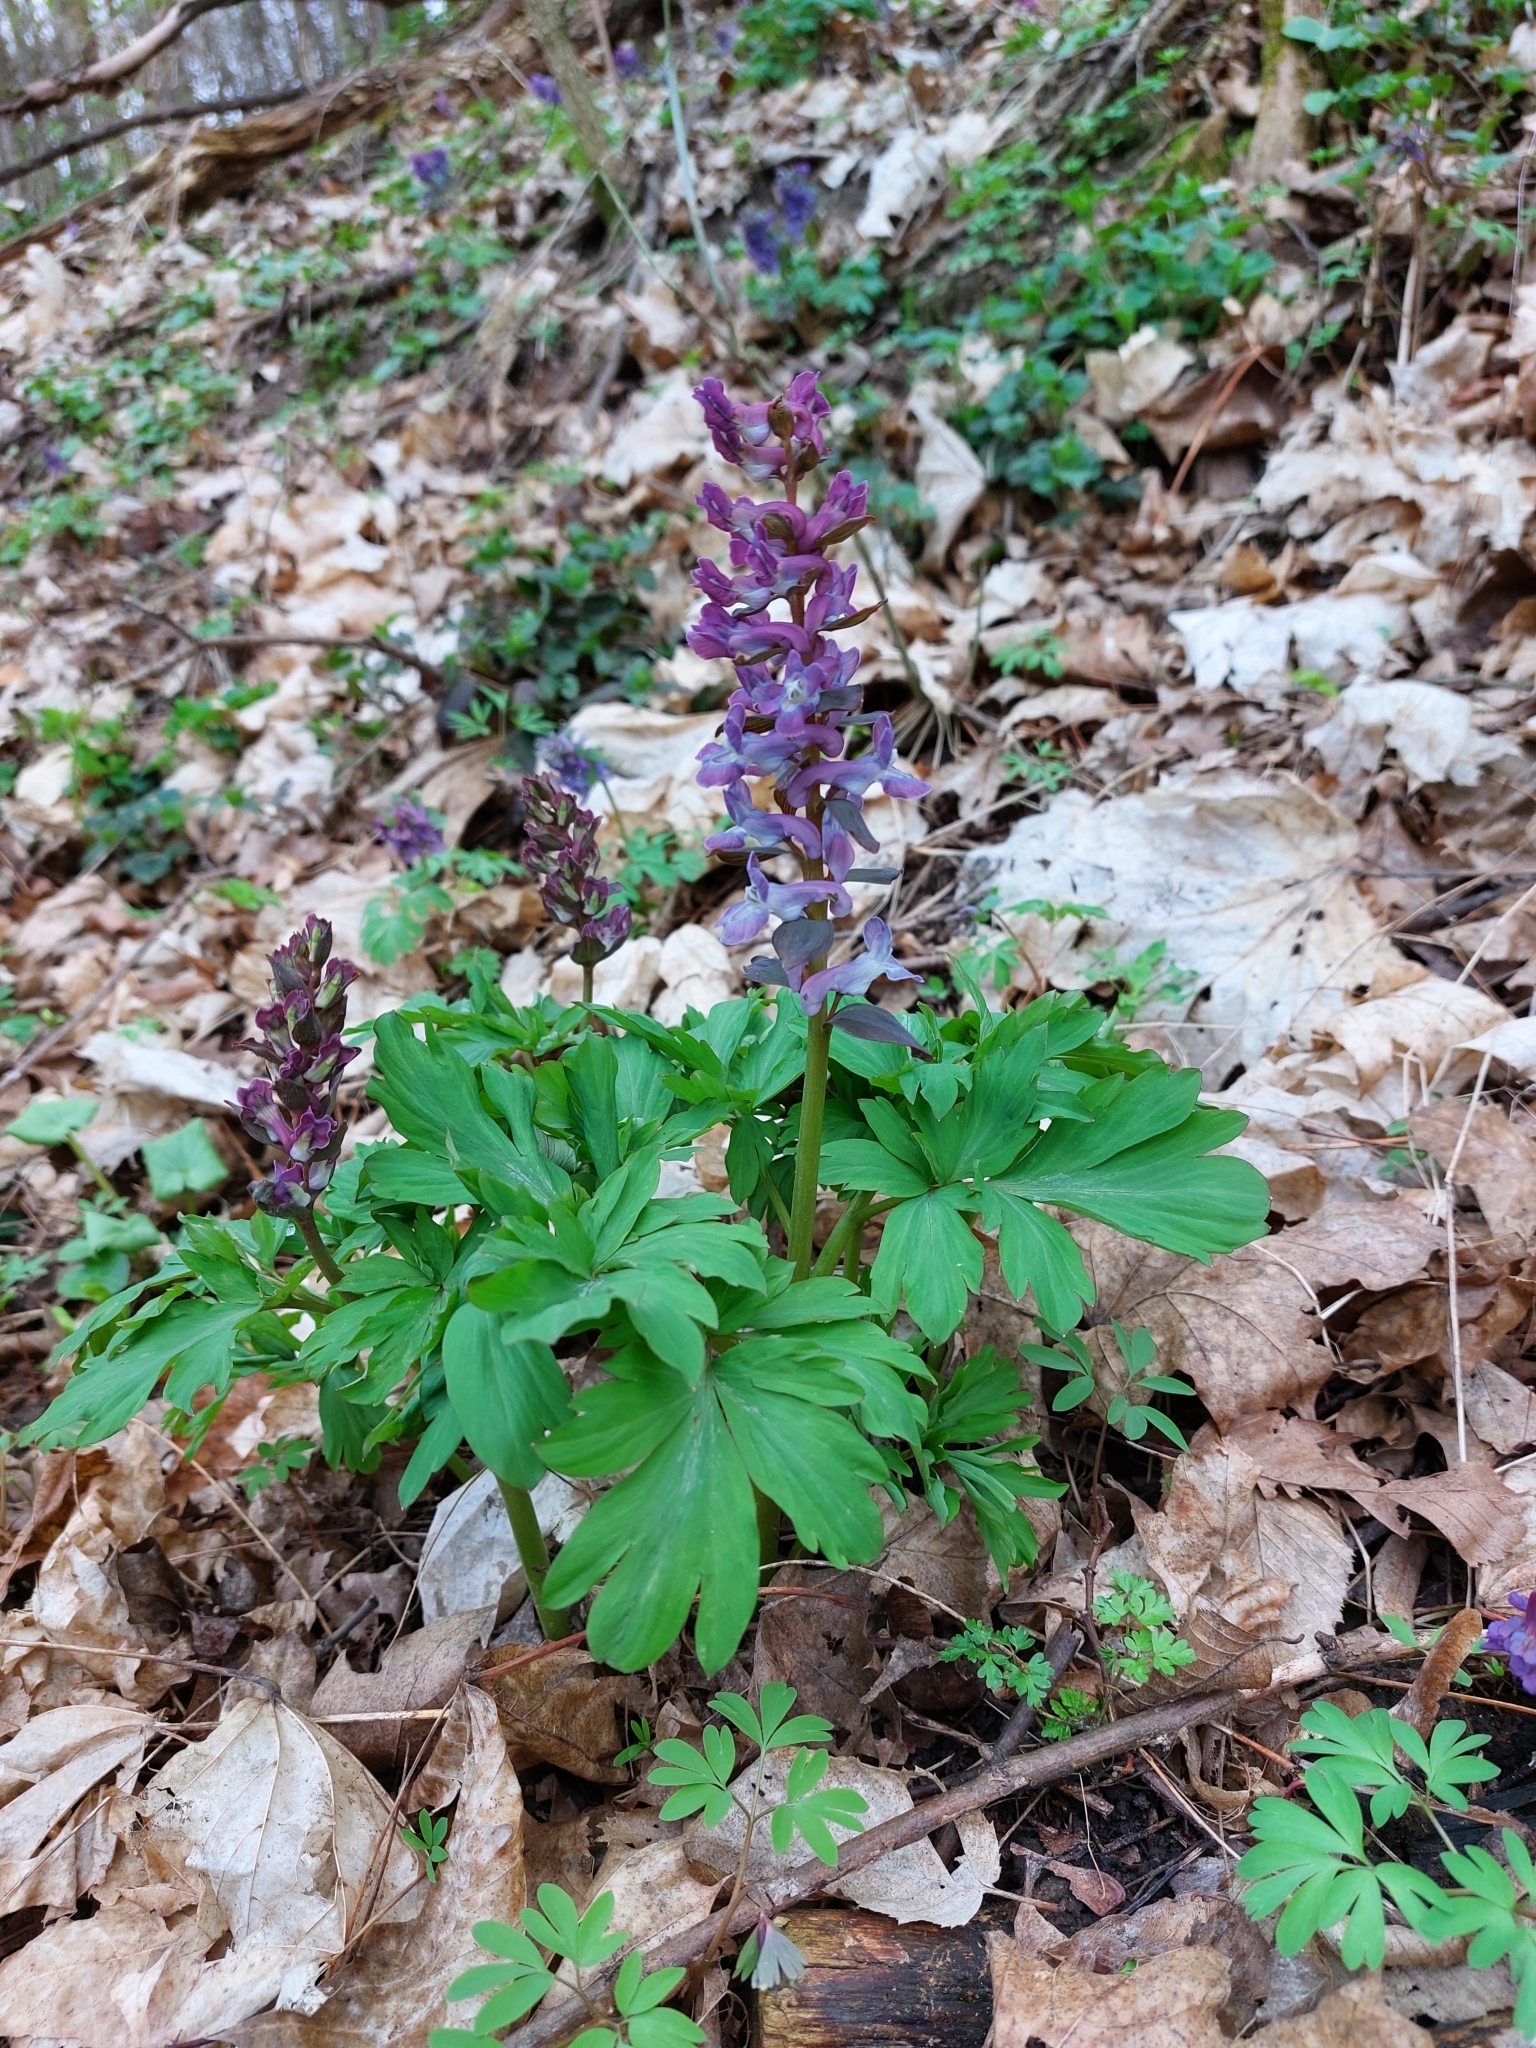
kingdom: Plantae
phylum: Tracheophyta
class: Magnoliopsida
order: Ranunculales
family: Papaveraceae
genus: Corydalis
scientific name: Corydalis cava
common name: Hollowroot
